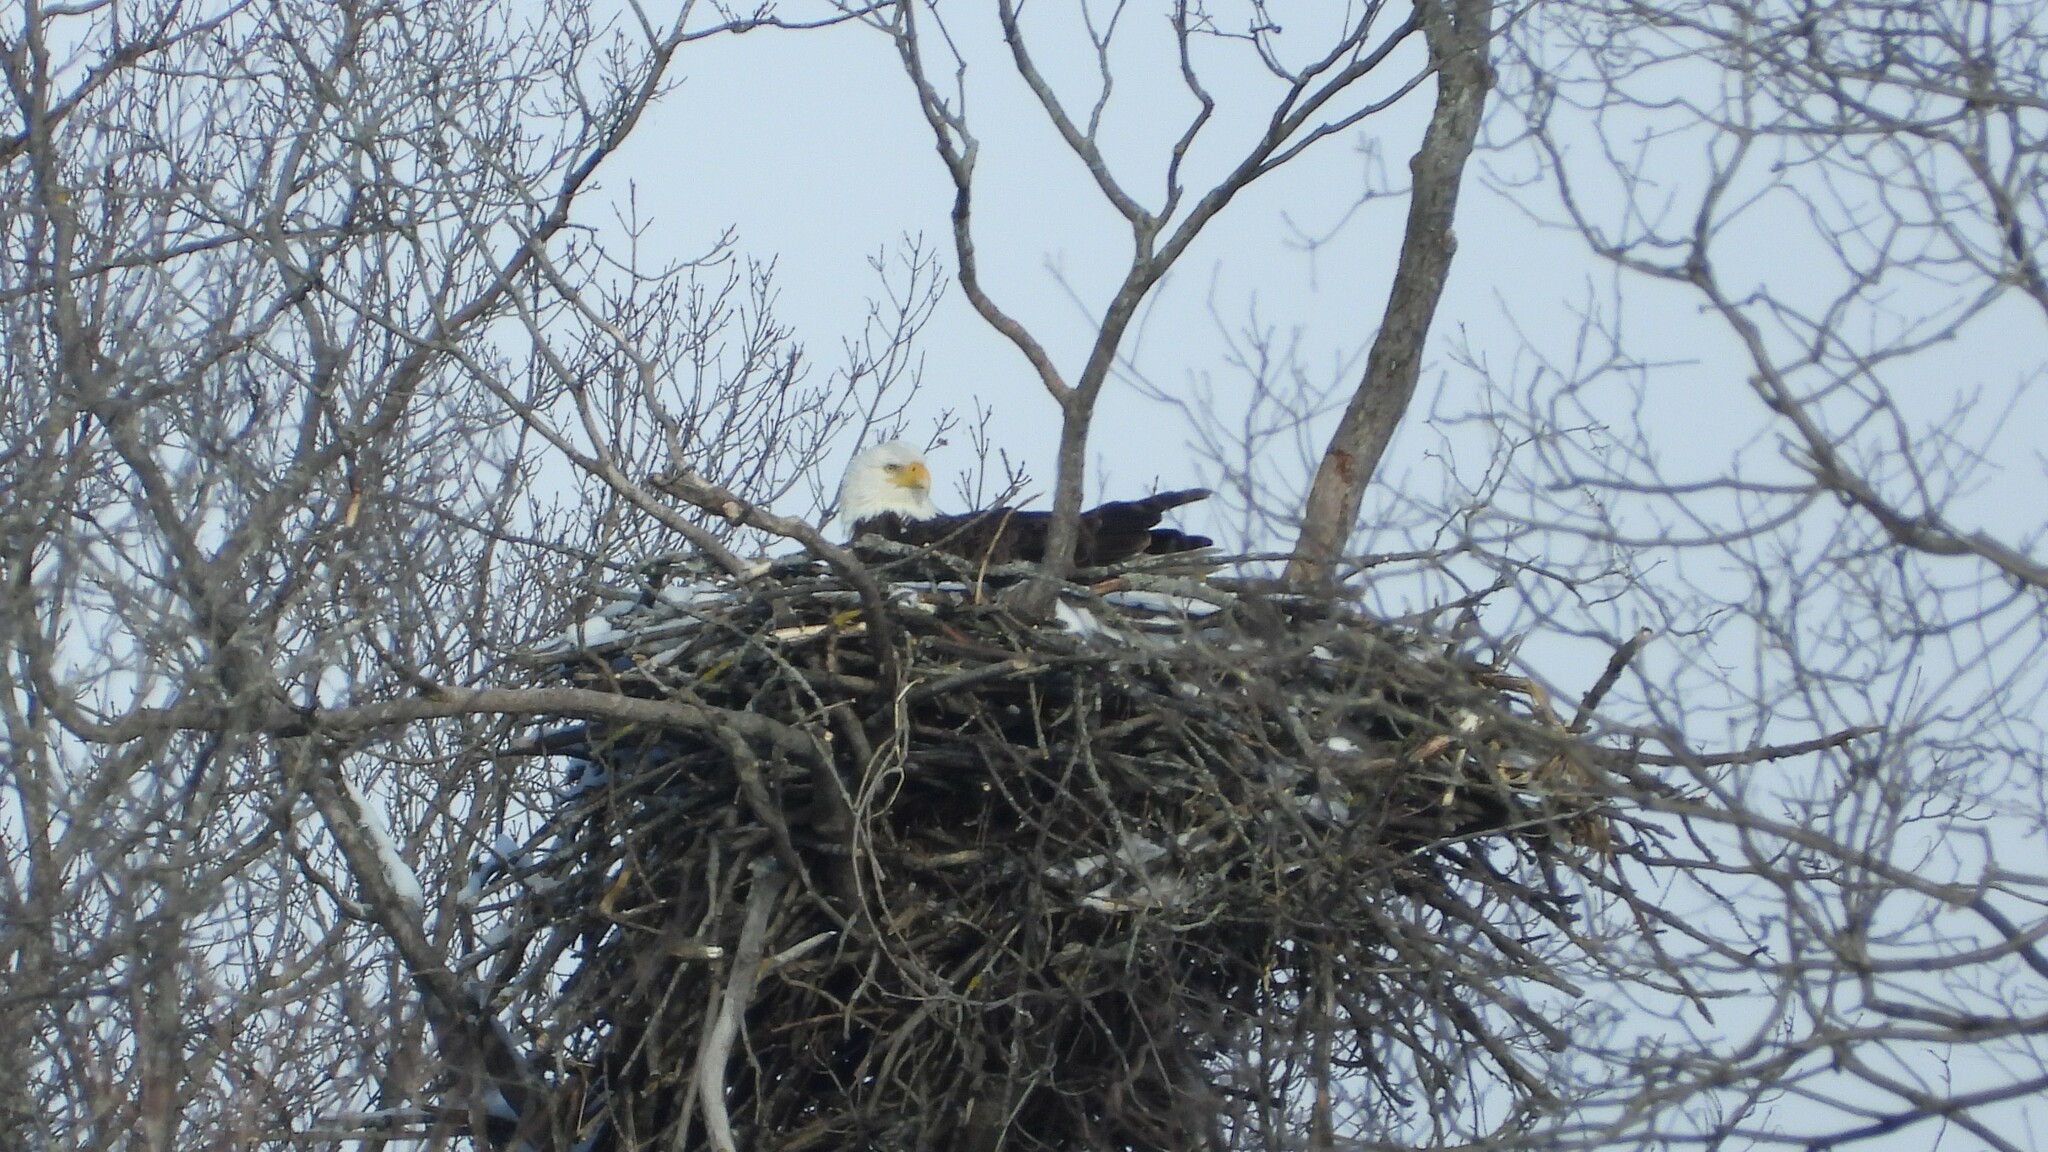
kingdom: Animalia
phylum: Chordata
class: Aves
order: Accipitriformes
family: Accipitridae
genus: Haliaeetus
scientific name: Haliaeetus leucocephalus
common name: Bald eagle
